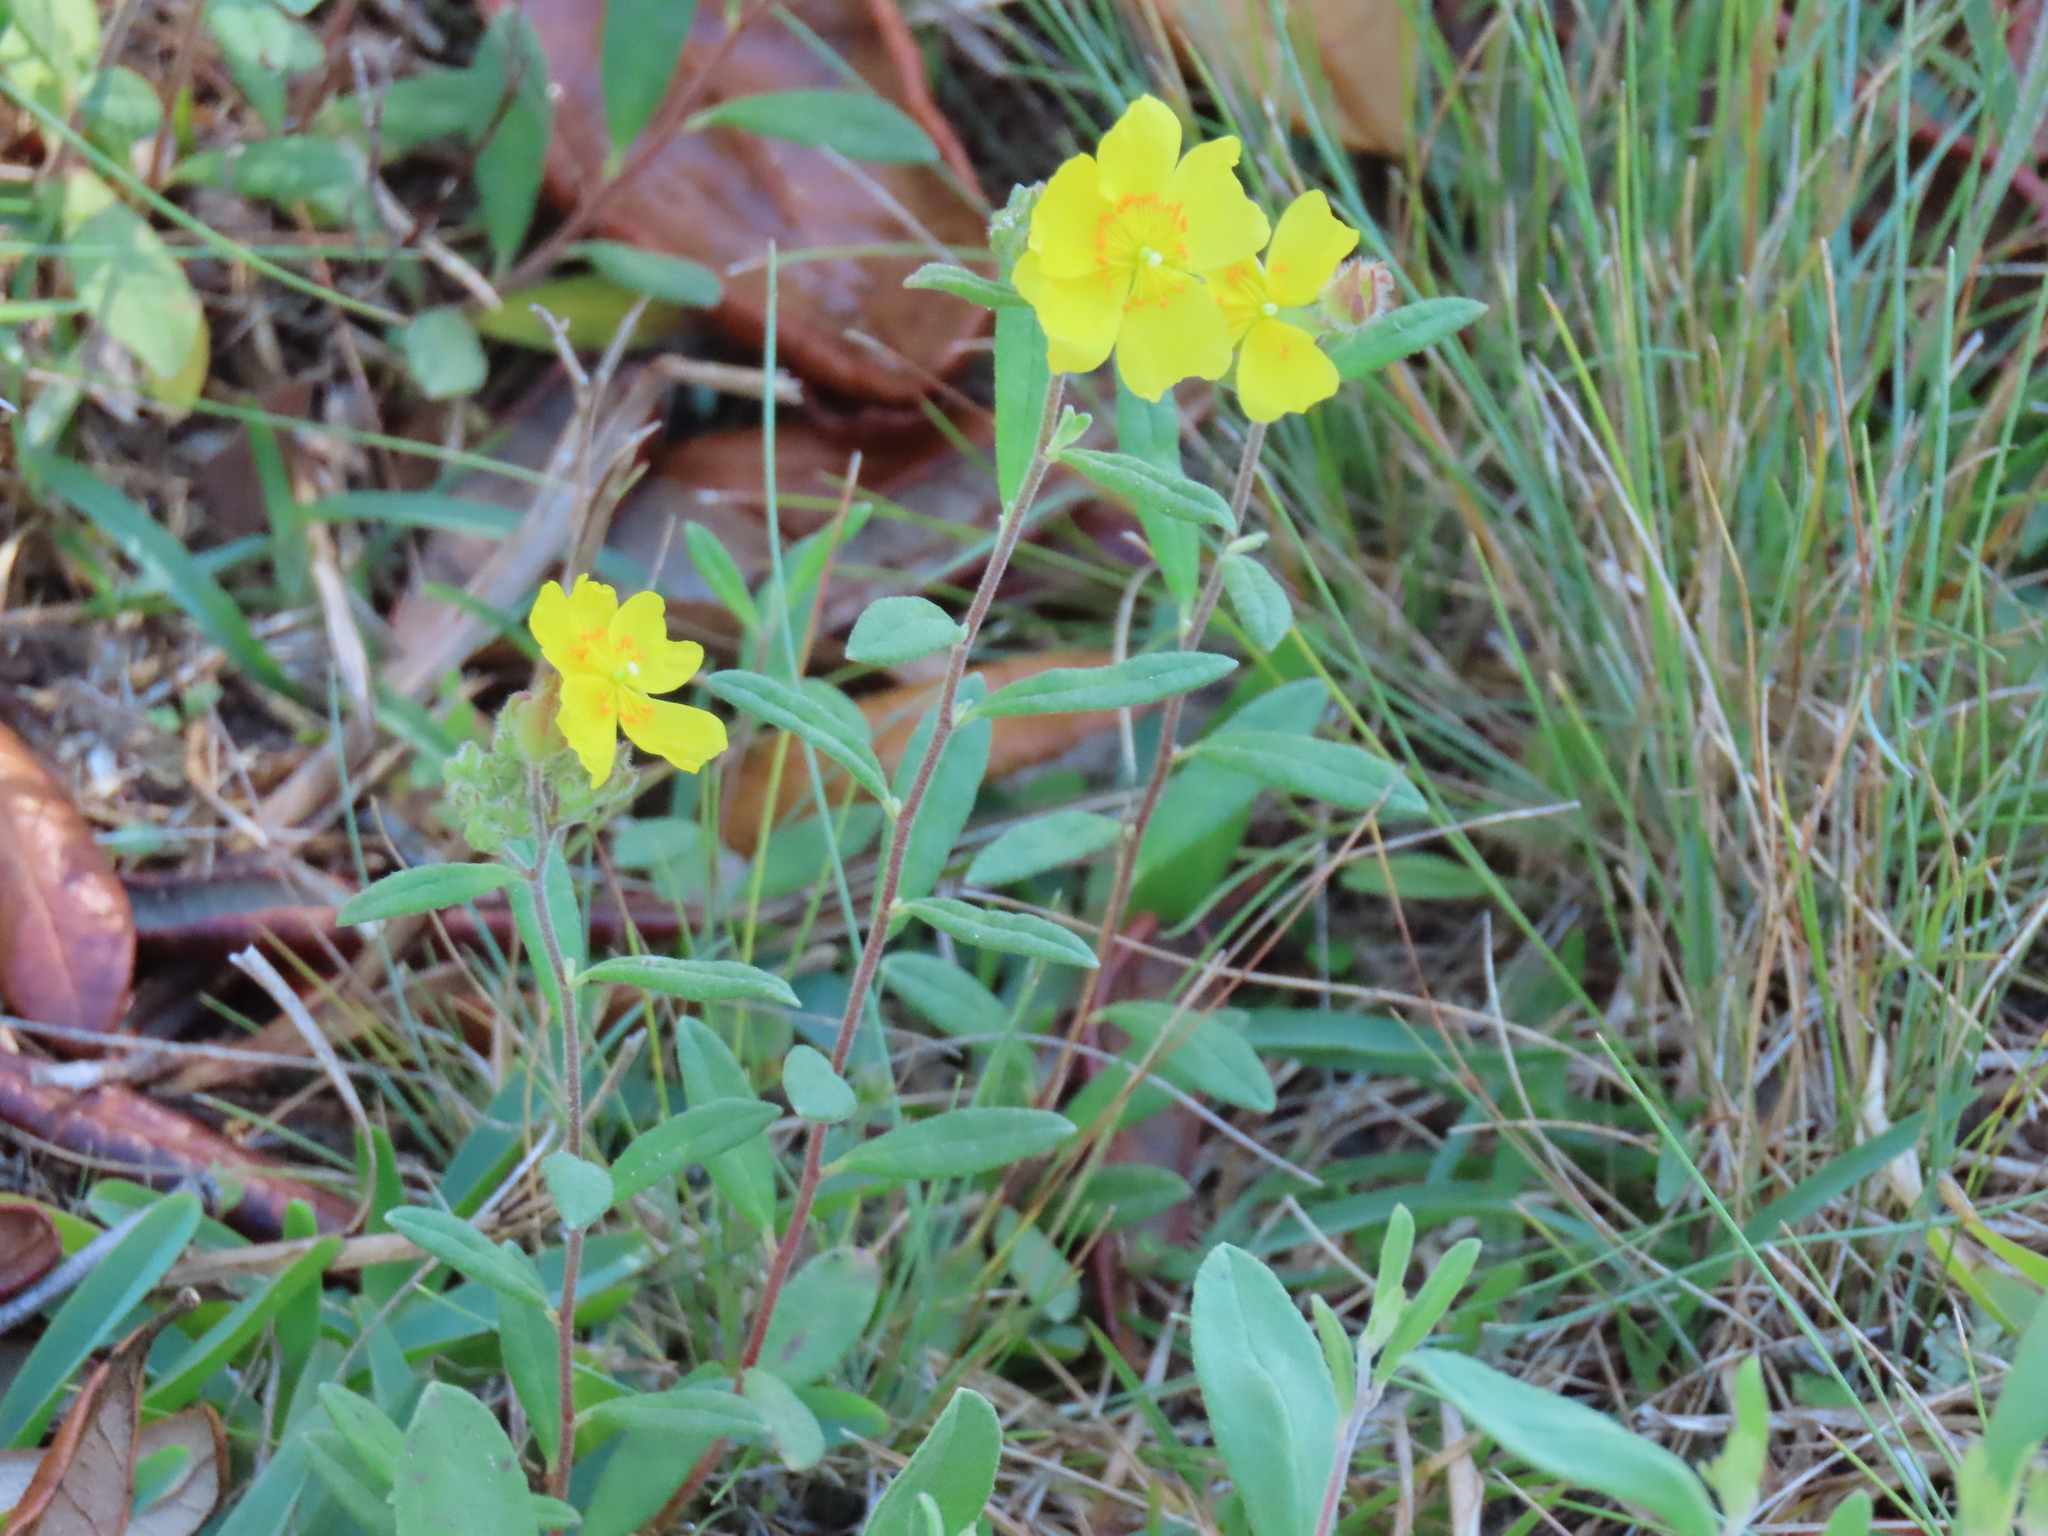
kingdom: Plantae
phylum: Tracheophyta
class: Magnoliopsida
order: Malvales
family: Cistaceae
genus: Crocanthemum
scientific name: Crocanthemum corymbosum
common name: Pinebarren sun-rose
